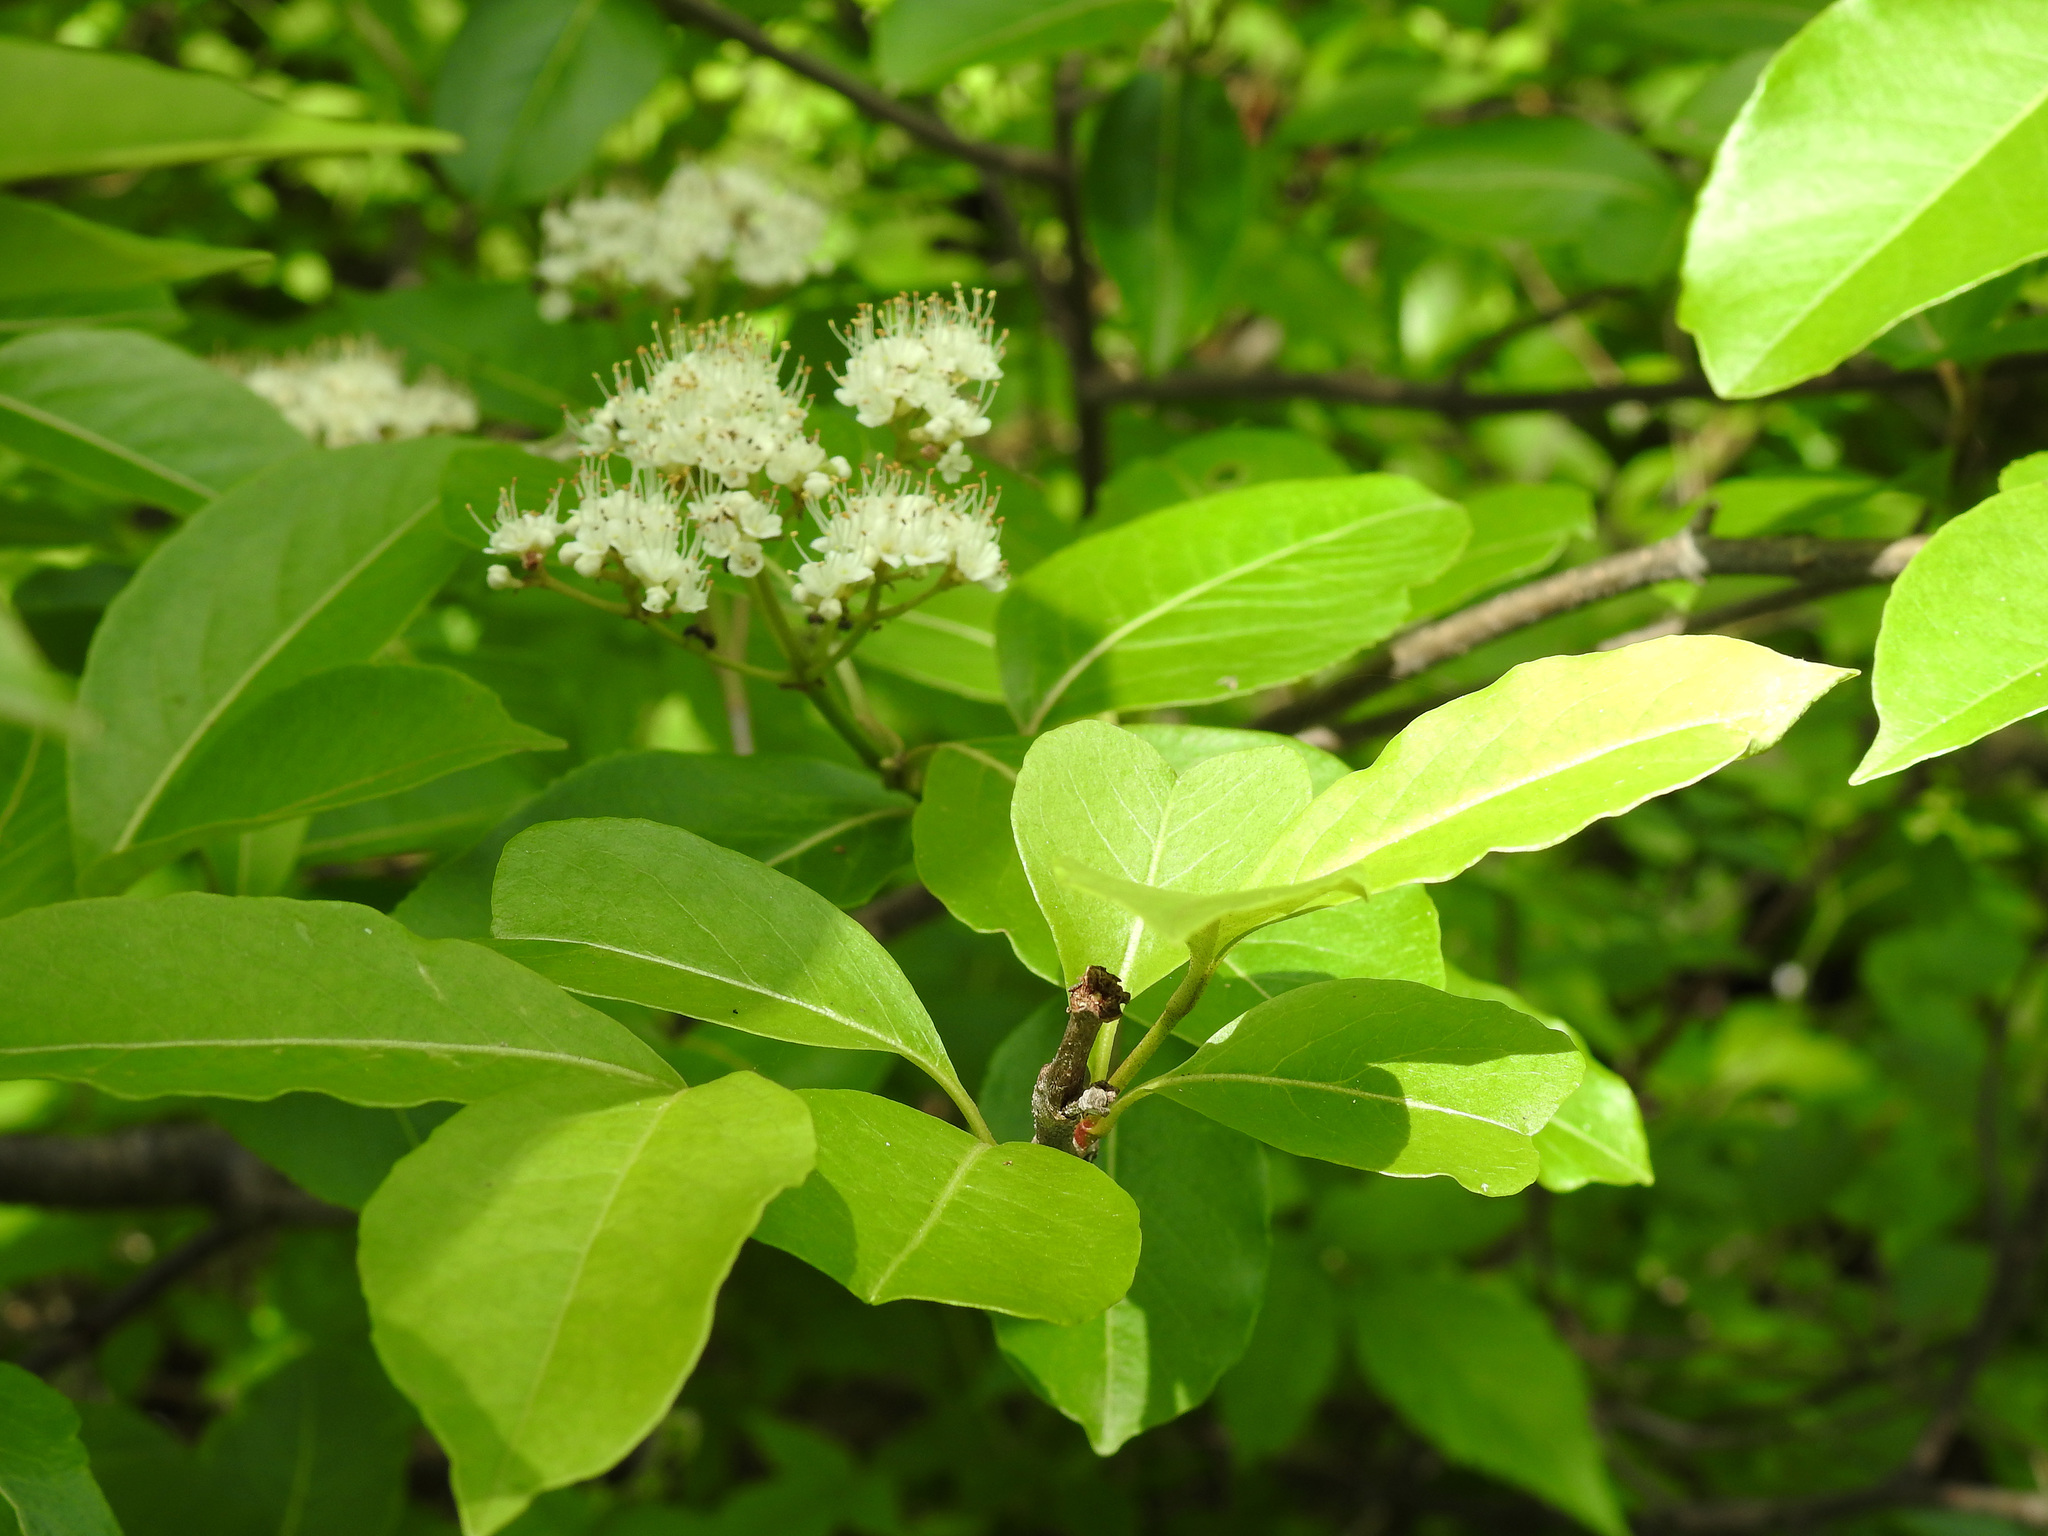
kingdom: Plantae
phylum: Tracheophyta
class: Magnoliopsida
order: Dipsacales
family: Viburnaceae
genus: Viburnum
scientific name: Viburnum cassinoides
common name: Swamp haw
